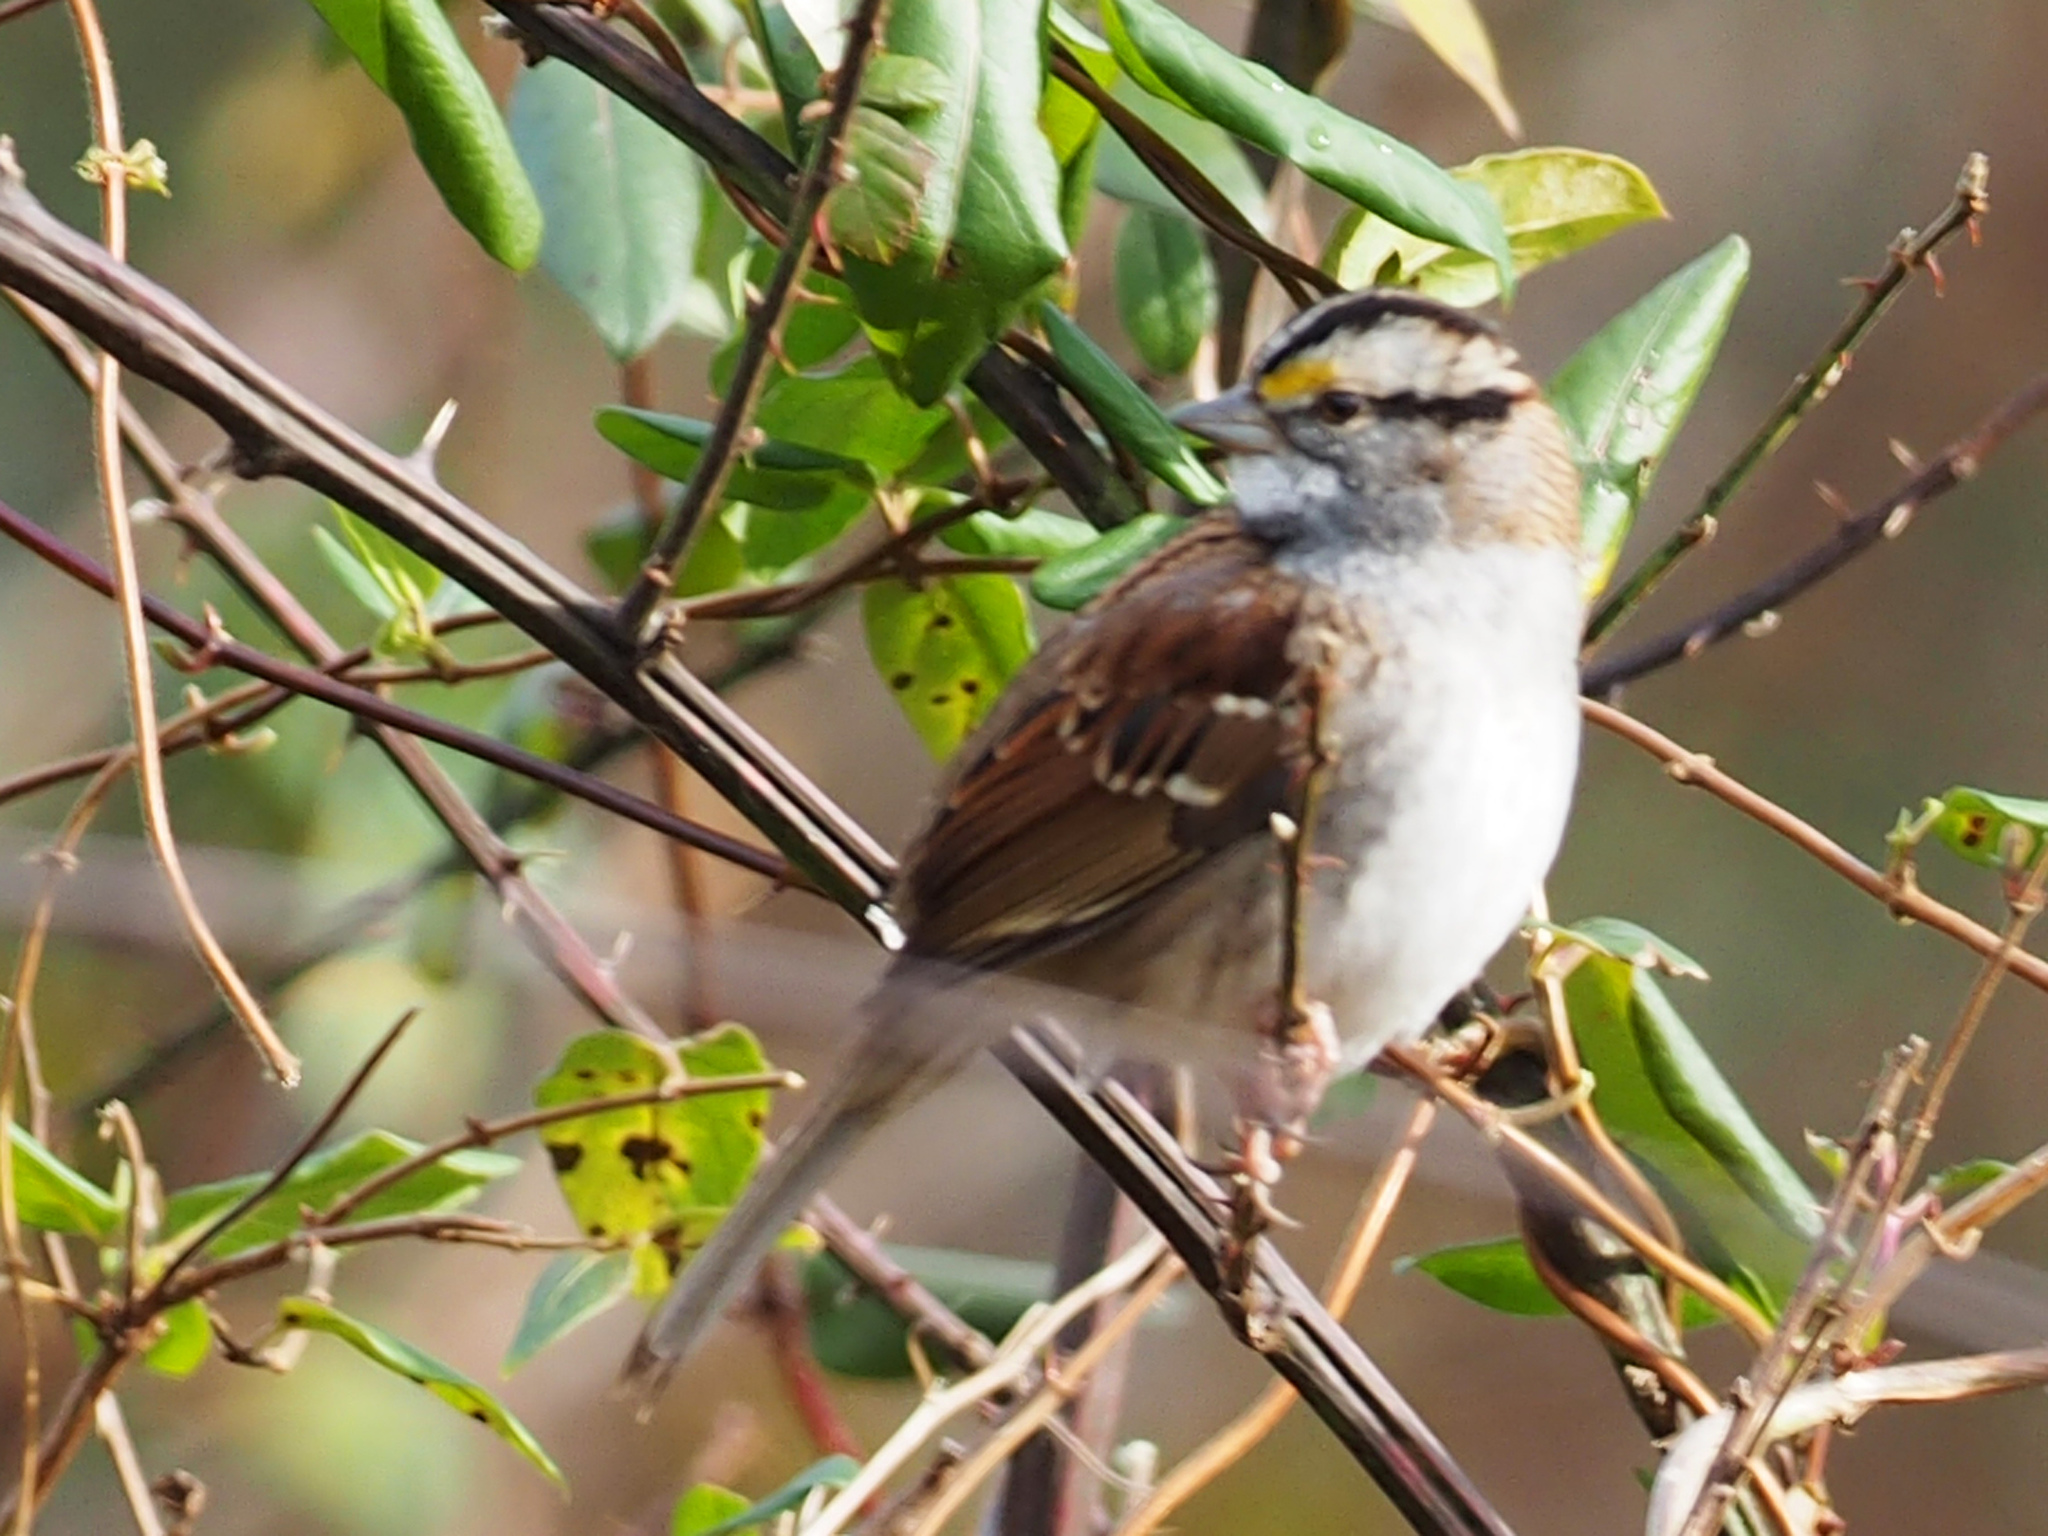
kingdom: Animalia
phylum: Chordata
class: Aves
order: Passeriformes
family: Passerellidae
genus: Zonotrichia
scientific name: Zonotrichia albicollis
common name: White-throated sparrow
